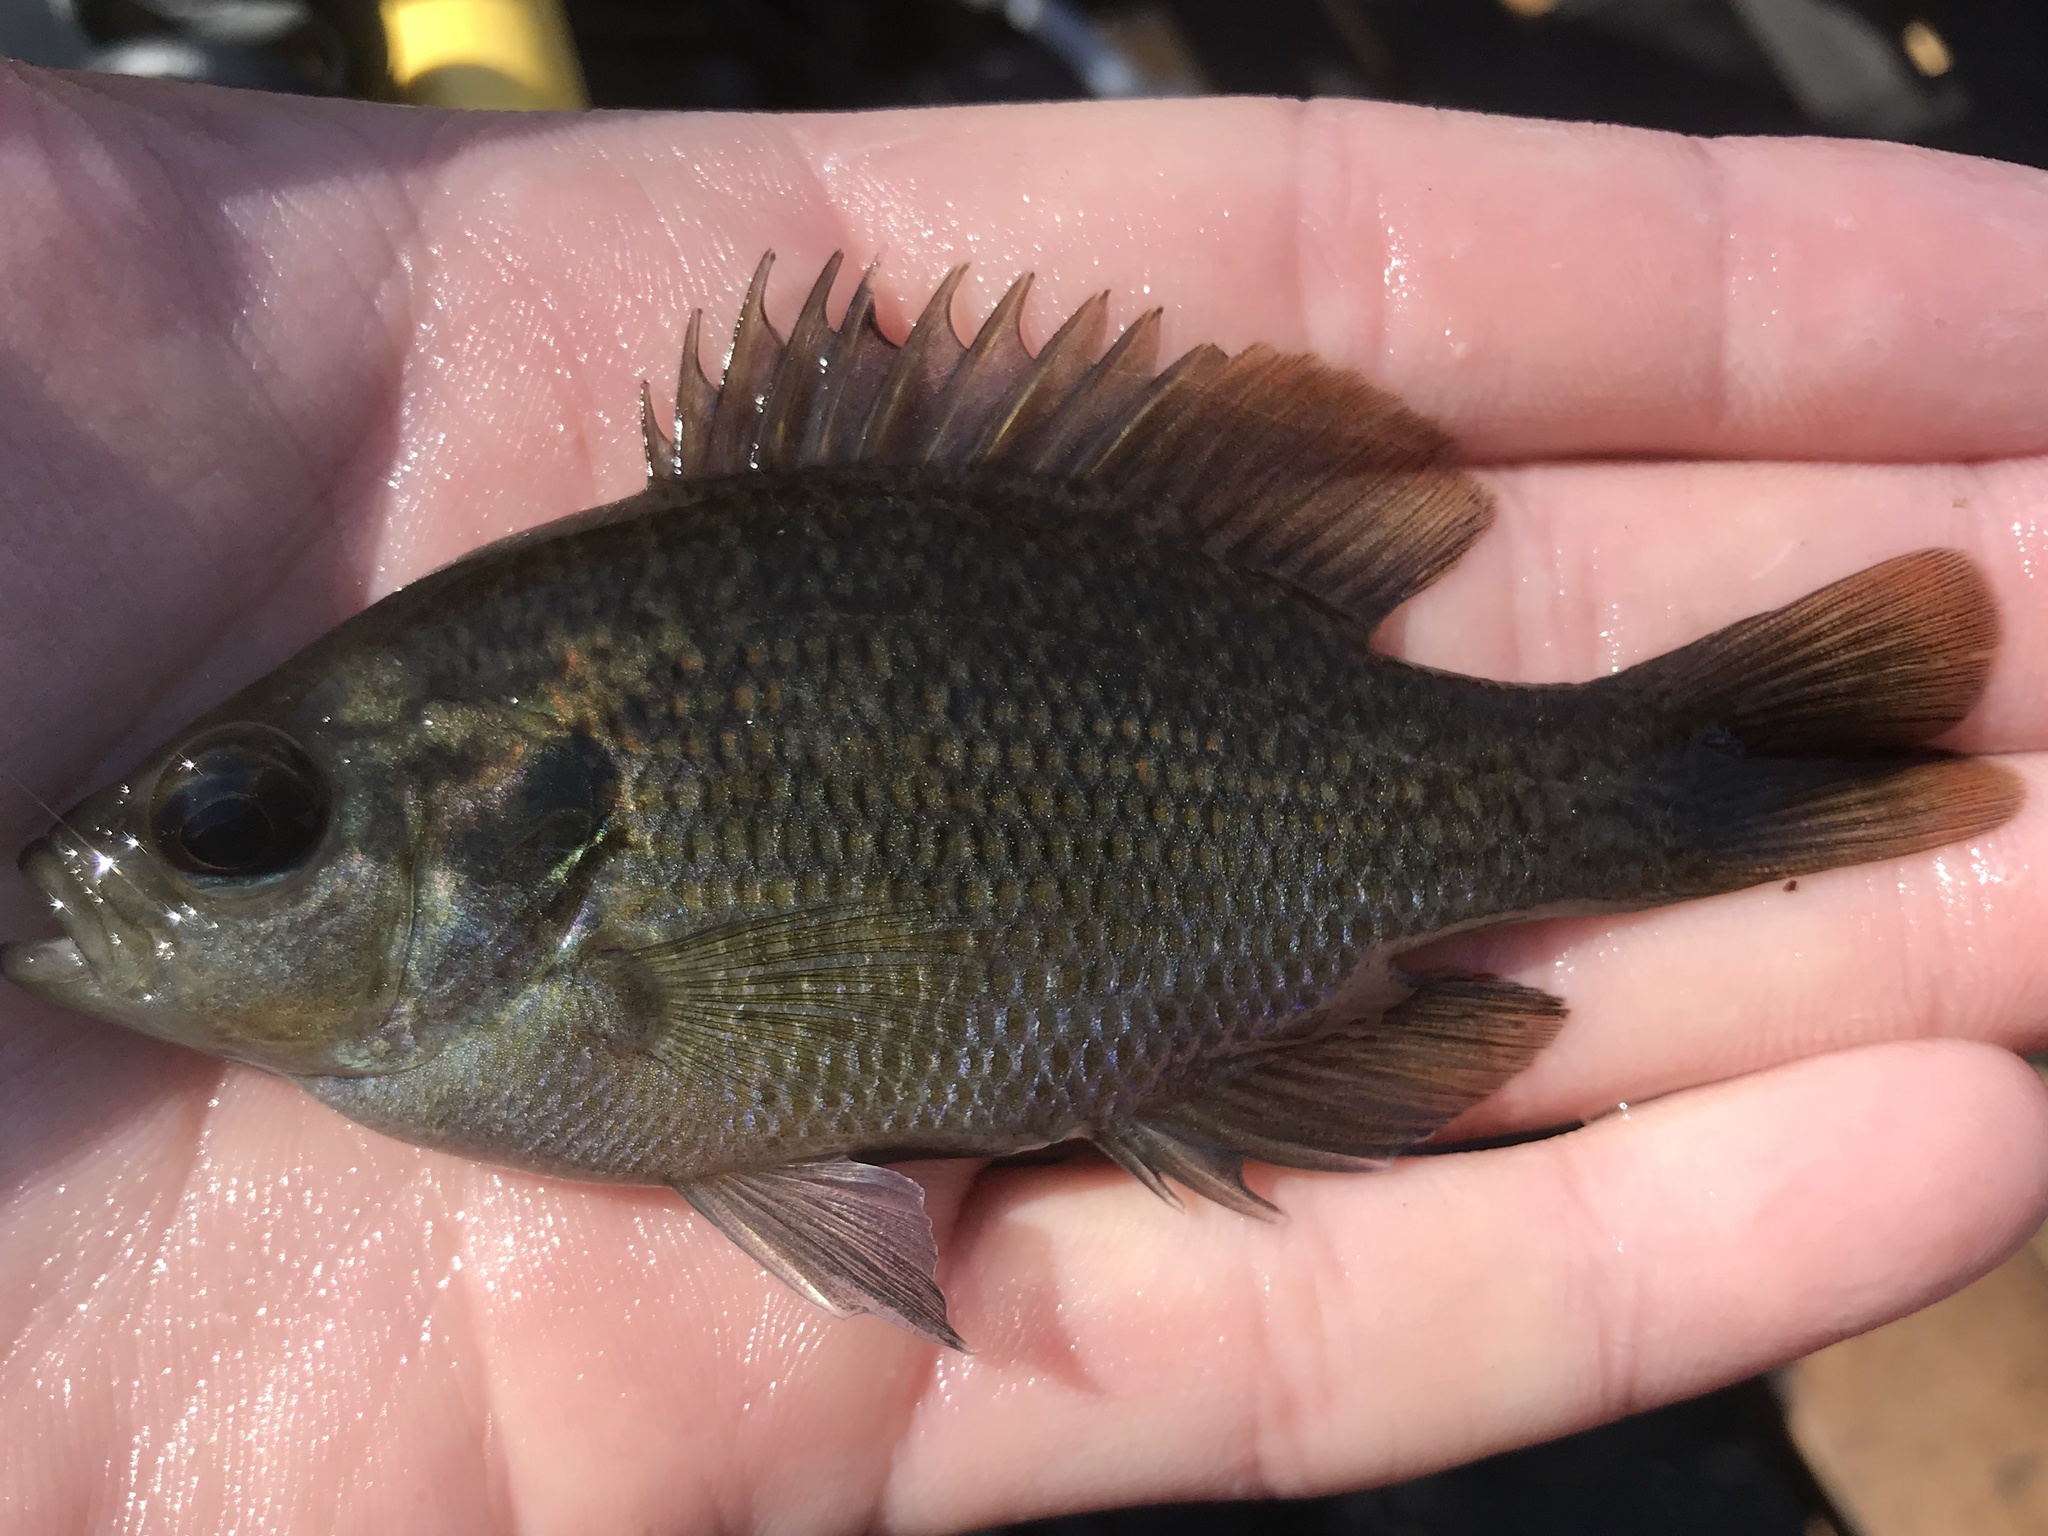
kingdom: Animalia
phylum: Chordata
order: Perciformes
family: Centrarchidae
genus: Lepomis
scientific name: Lepomis miniatus
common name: Redspotted sunfish
